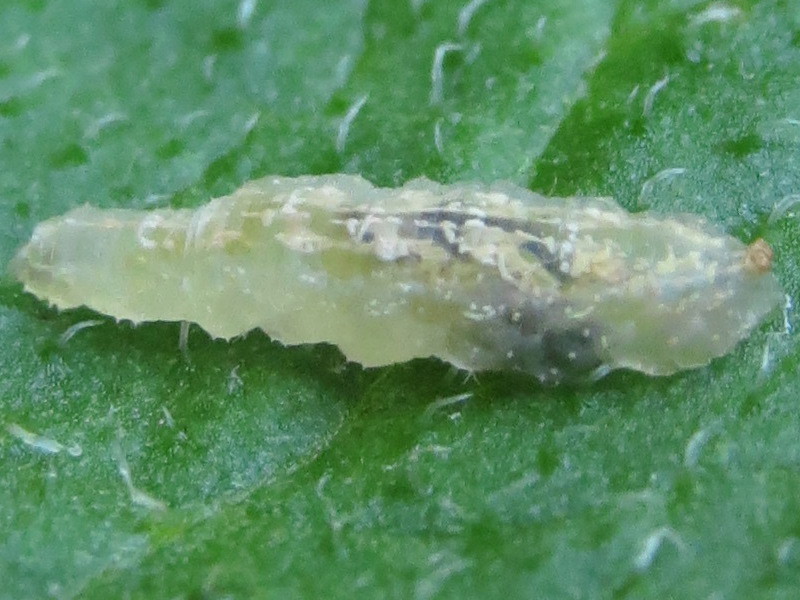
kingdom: Animalia
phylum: Arthropoda
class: Insecta
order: Diptera
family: Syrphidae
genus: Syrphus
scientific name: Syrphus
